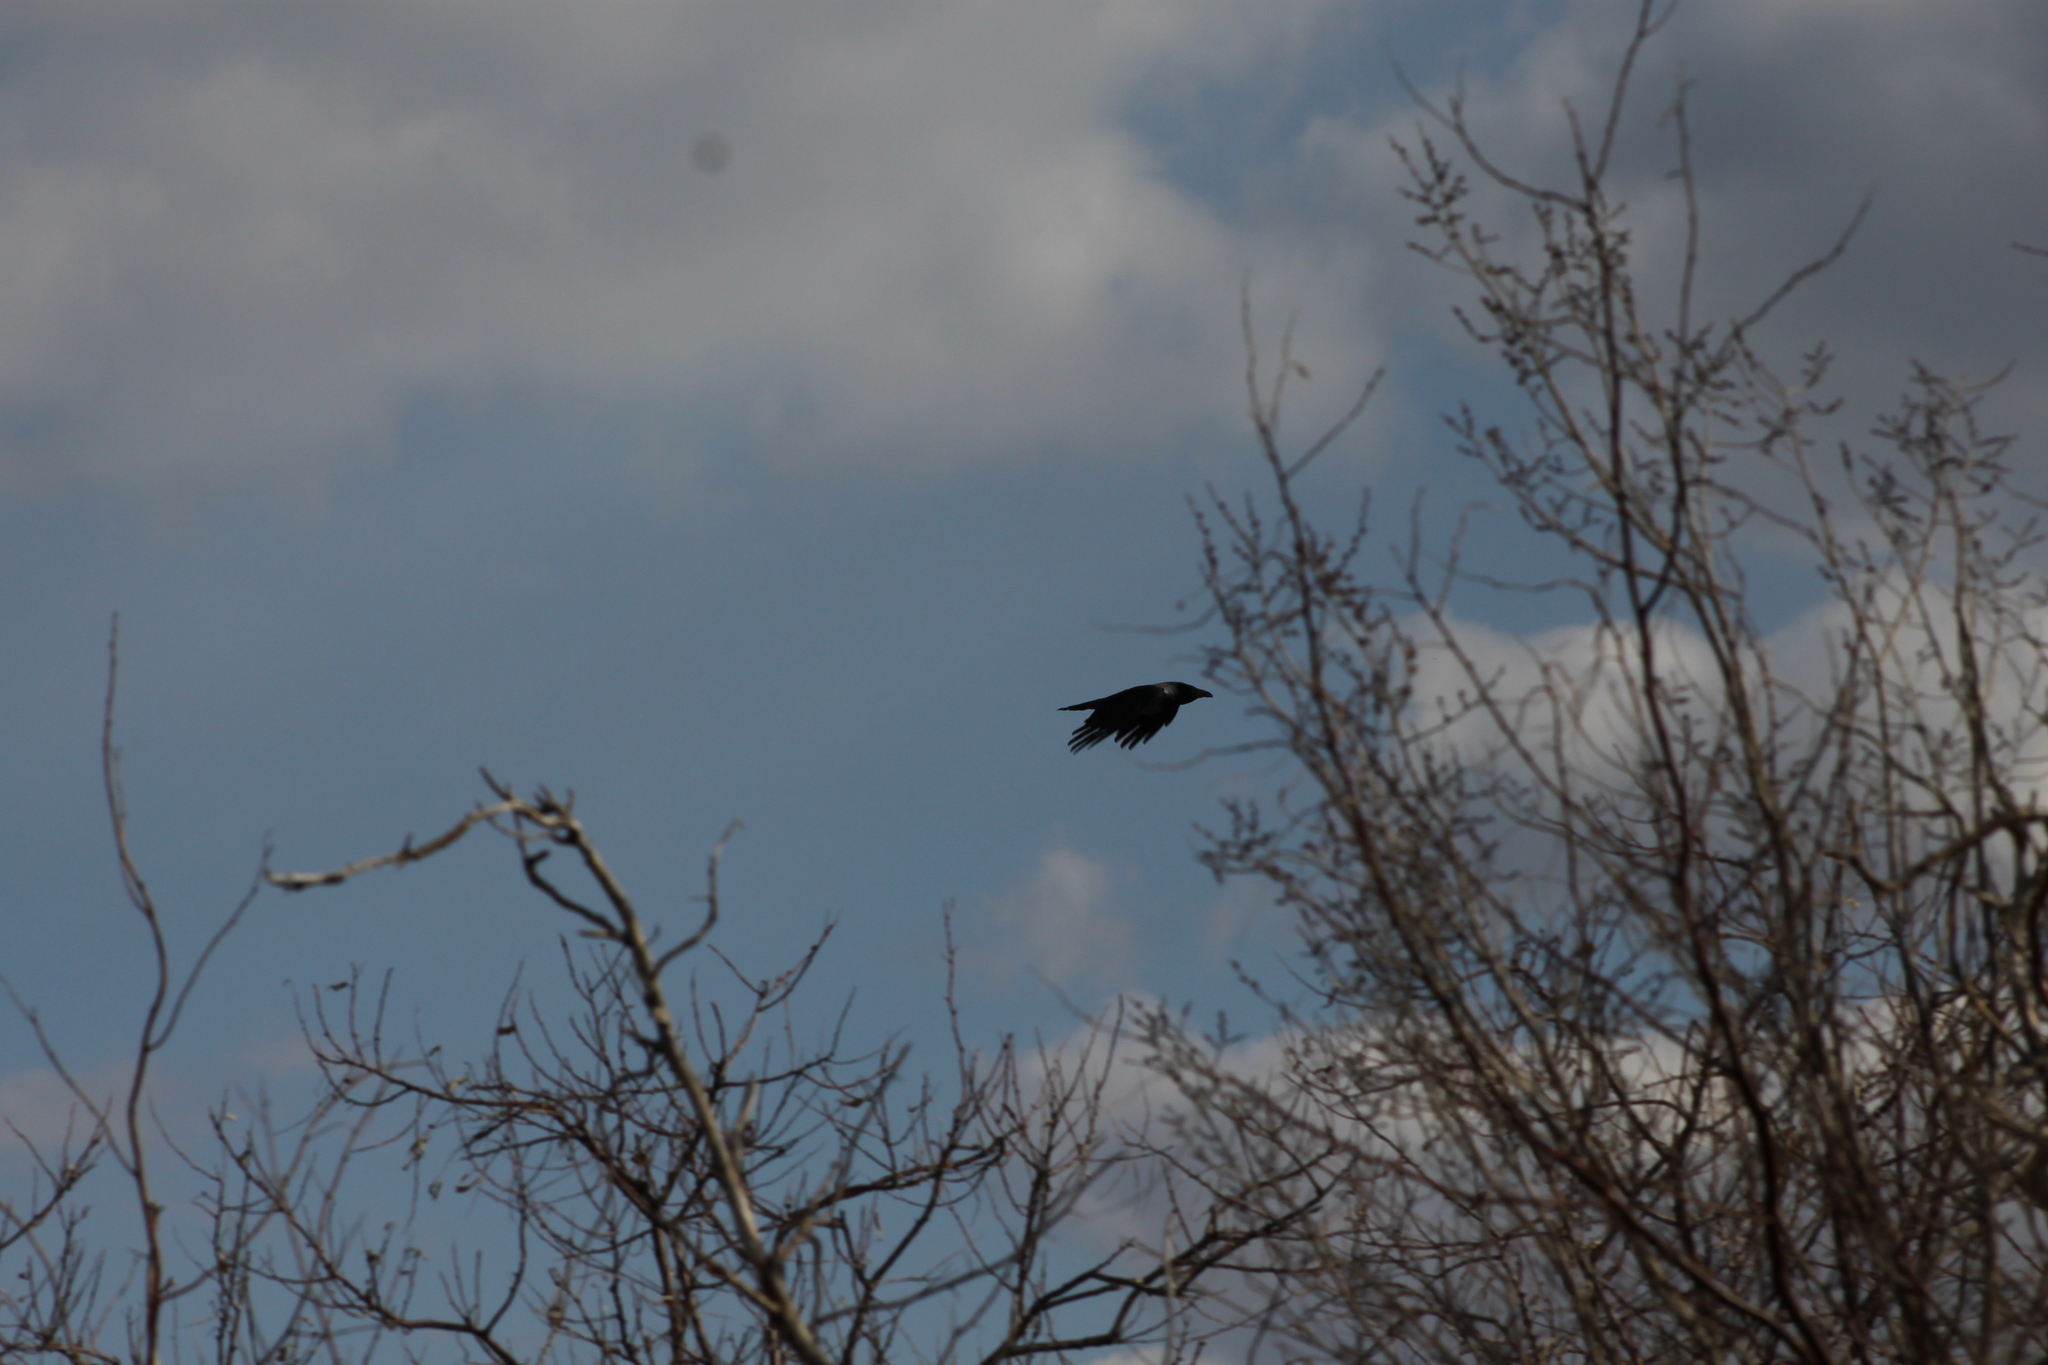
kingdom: Animalia
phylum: Chordata
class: Aves
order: Passeriformes
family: Corvidae
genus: Corvus
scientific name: Corvus cornix
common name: Hooded crow
